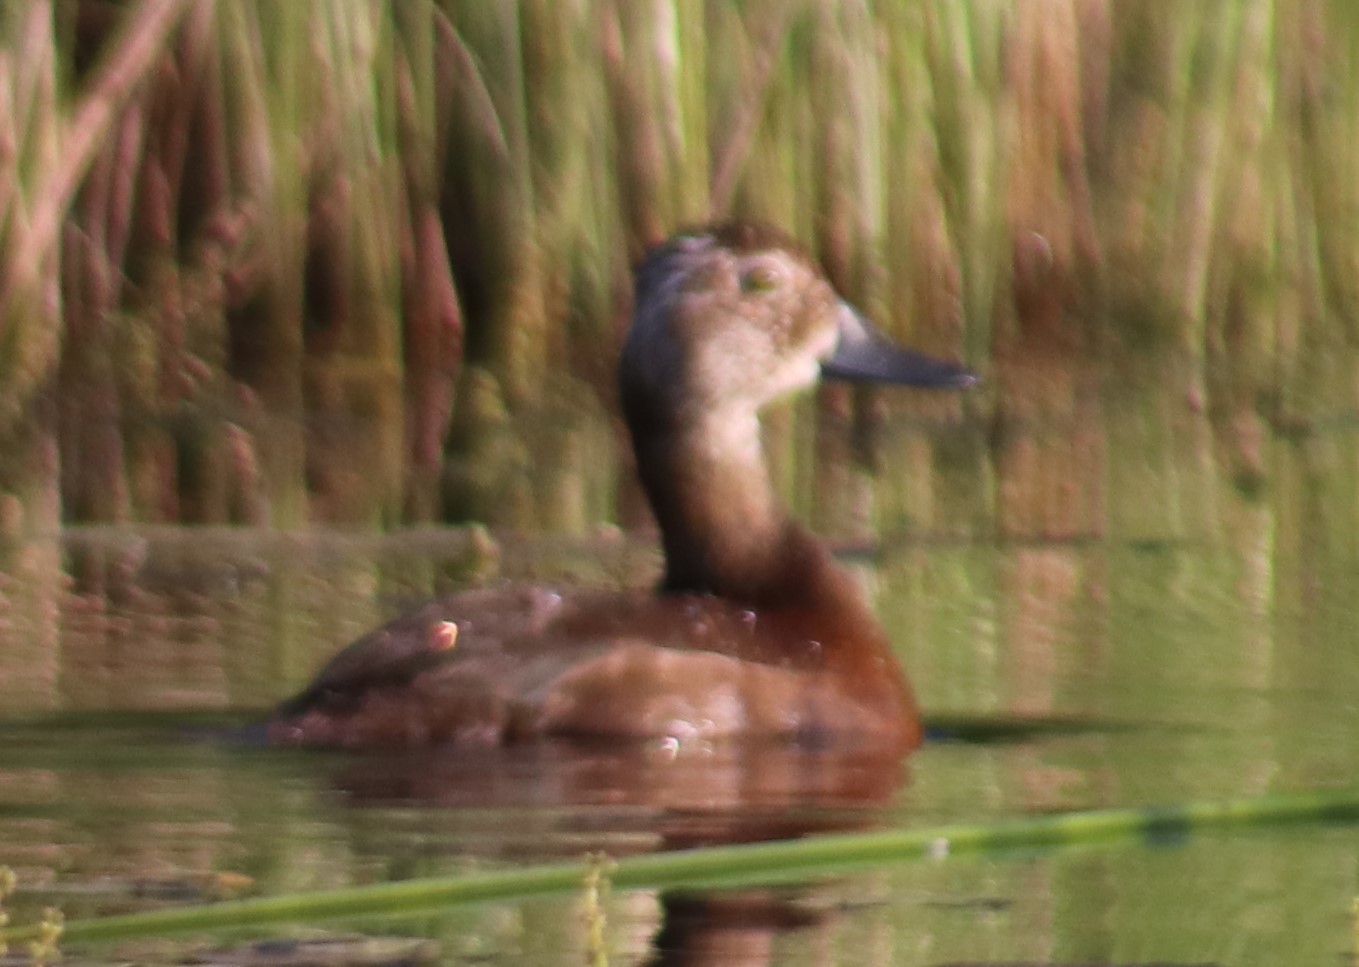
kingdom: Animalia
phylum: Chordata
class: Aves
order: Anseriformes
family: Anatidae
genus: Aythya
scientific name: Aythya collaris
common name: Ring-necked duck
